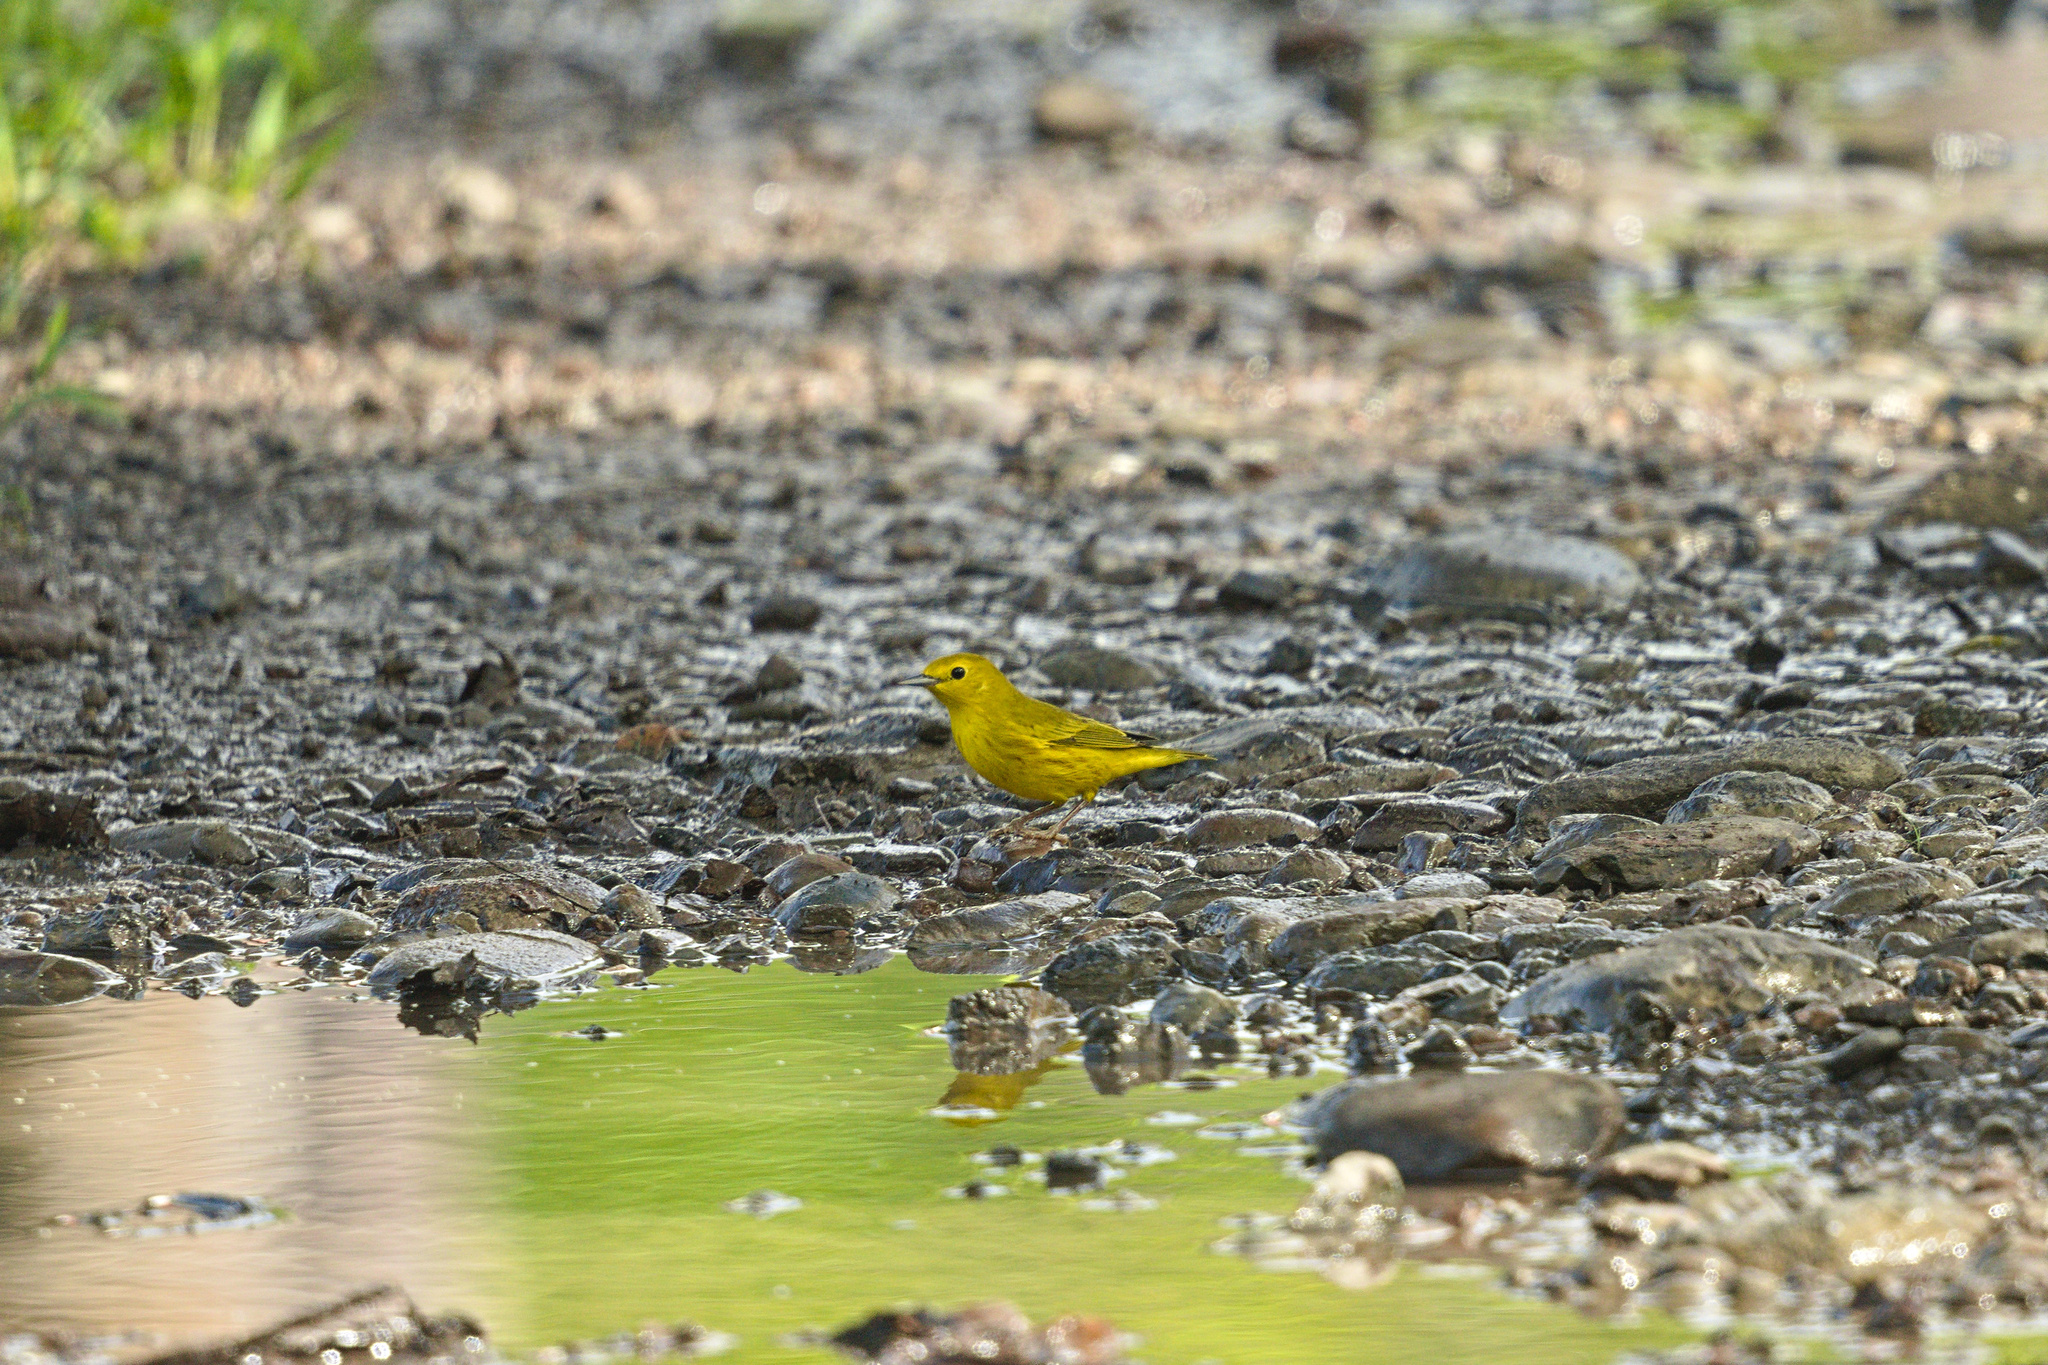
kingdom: Animalia
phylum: Chordata
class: Aves
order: Passeriformes
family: Parulidae
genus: Setophaga
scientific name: Setophaga petechia
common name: Yellow warbler
